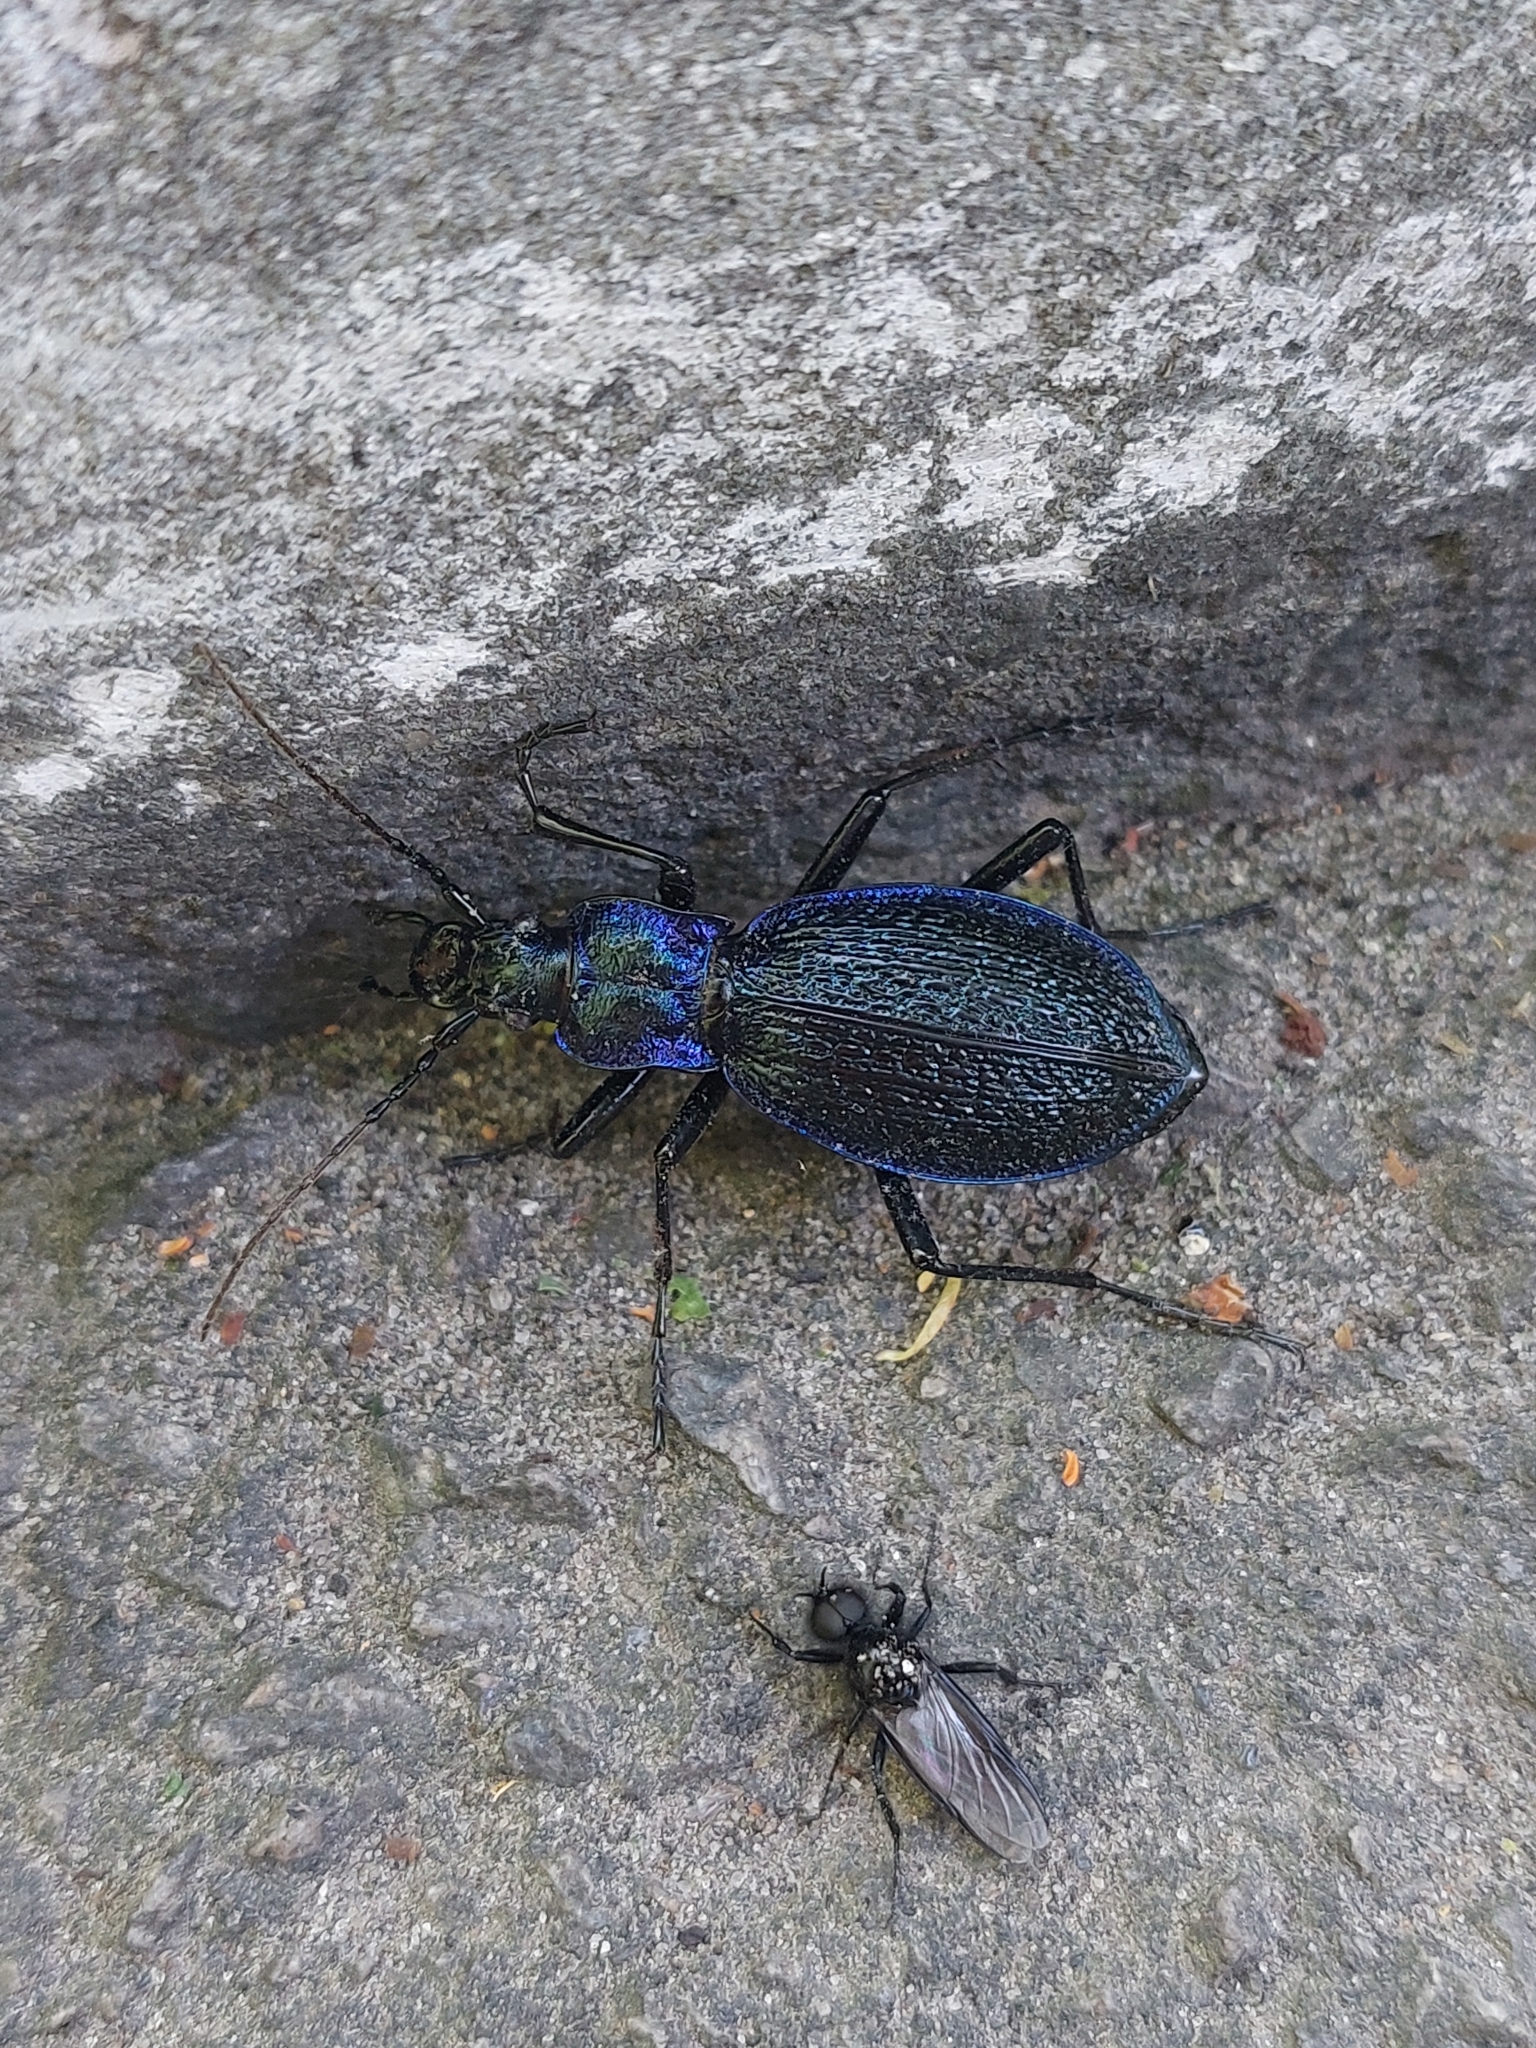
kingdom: Animalia
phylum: Arthropoda
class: Insecta
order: Coleoptera
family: Carabidae
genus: Carabus
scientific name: Carabus intricatus
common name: Blue ground beetle
